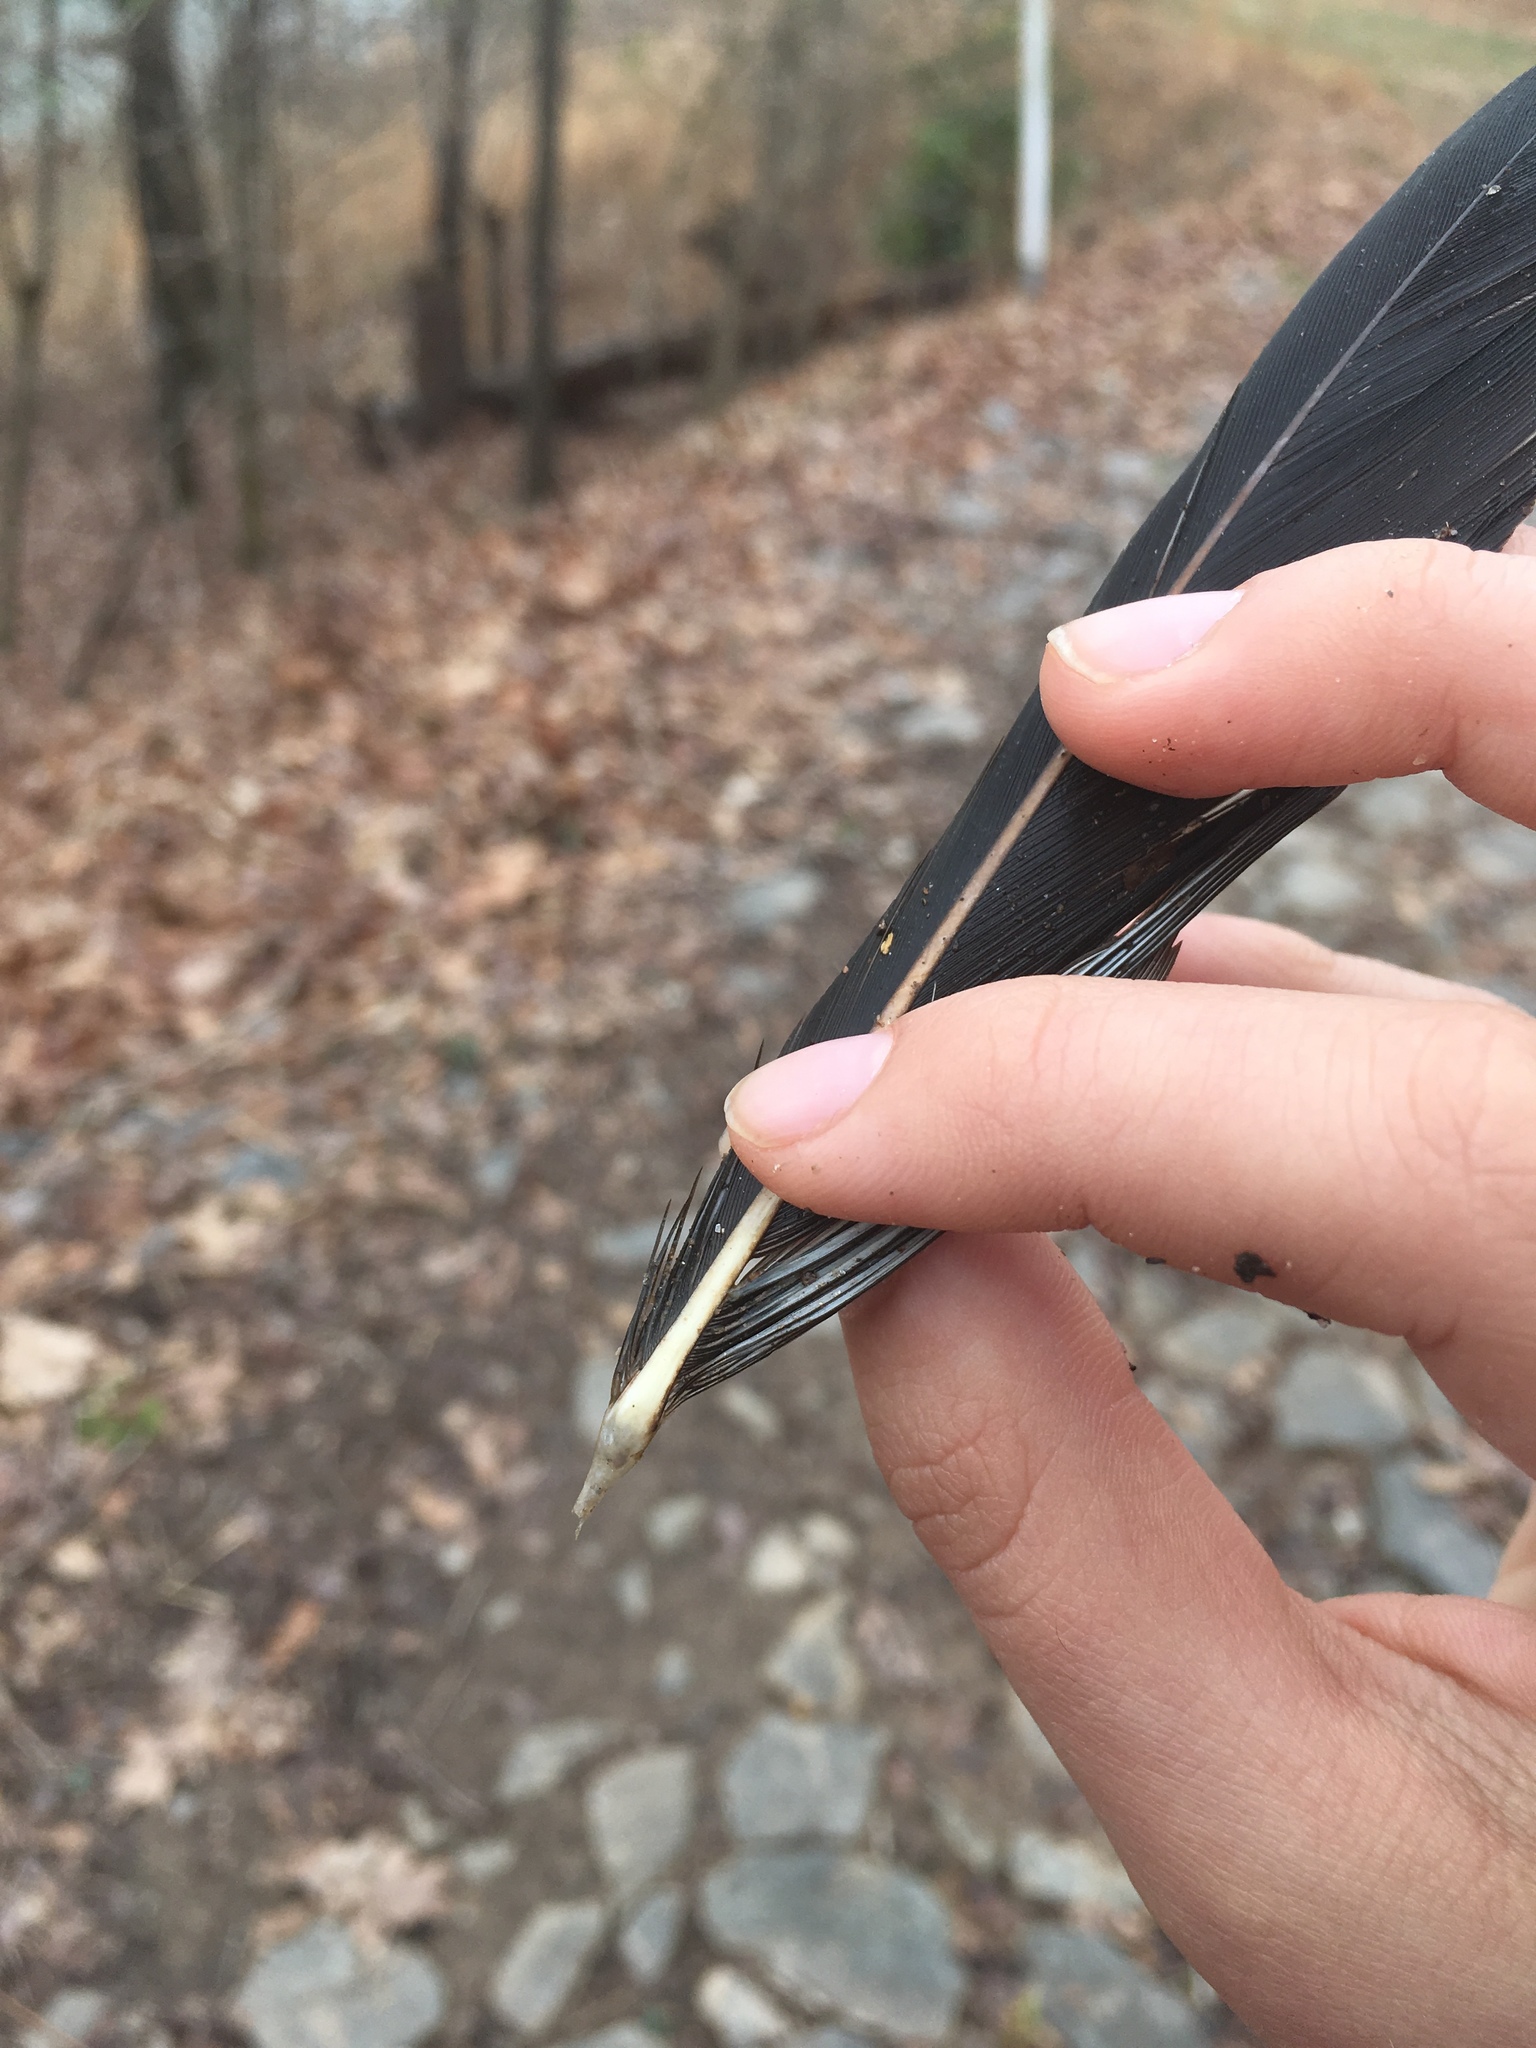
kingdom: Animalia
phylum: Chordata
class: Aves
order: Accipitriformes
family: Cathartidae
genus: Cathartes
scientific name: Cathartes aura
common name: Turkey vulture
